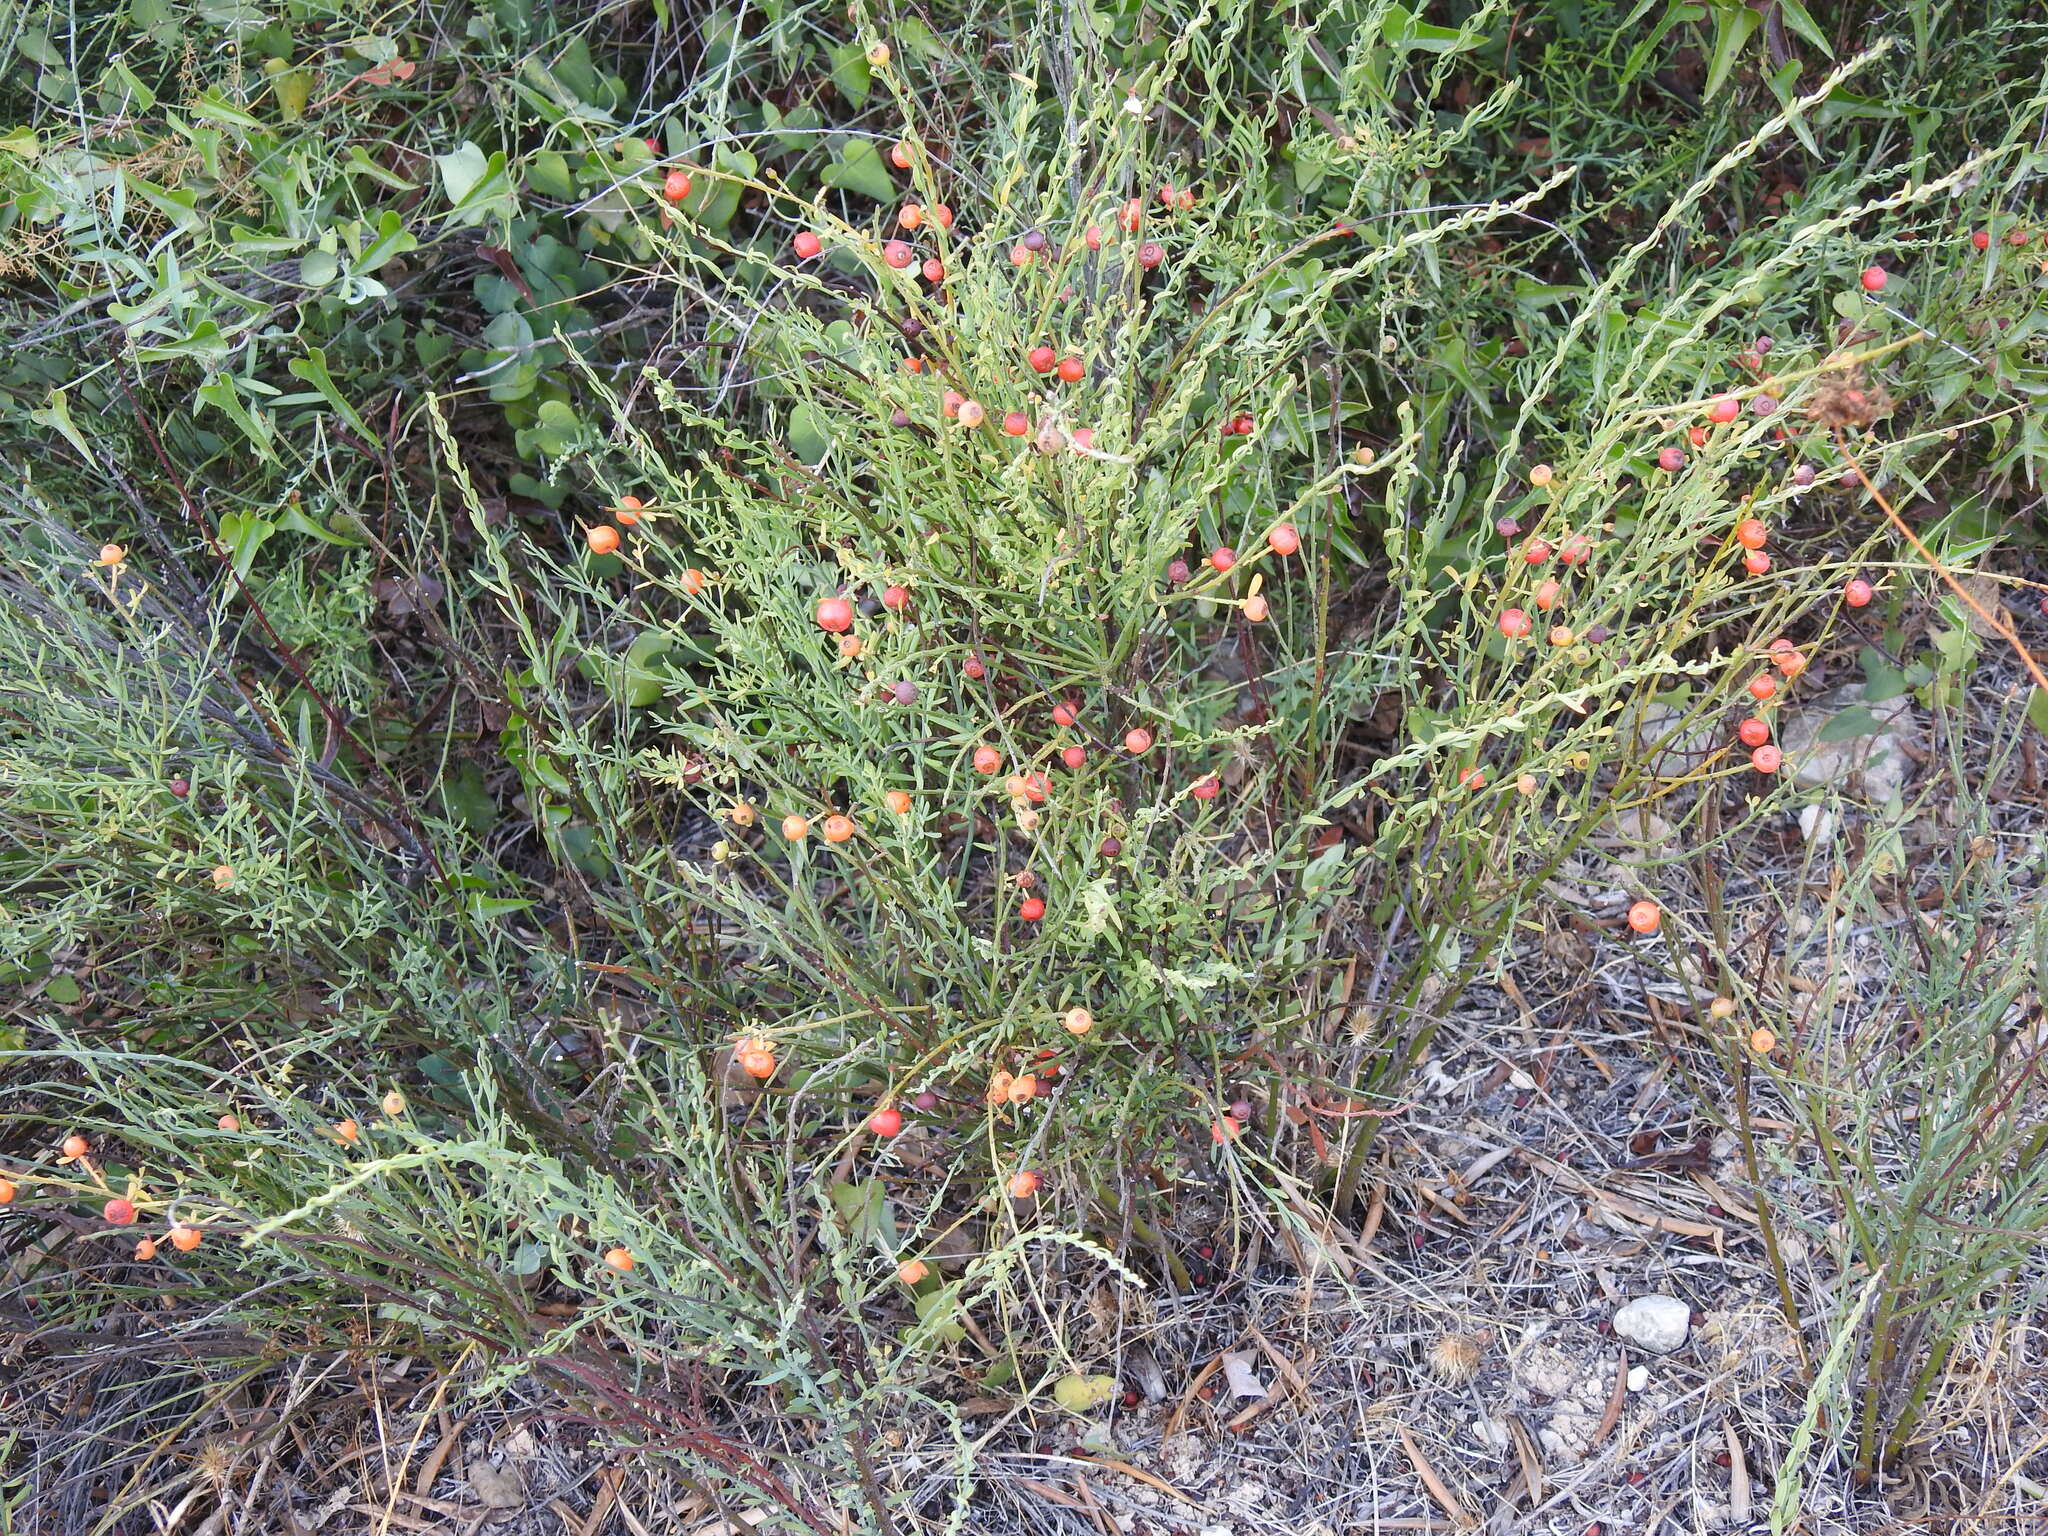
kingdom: Plantae
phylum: Tracheophyta
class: Magnoliopsida
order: Santalales
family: Santalaceae
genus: Osyris
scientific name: Osyris alba
